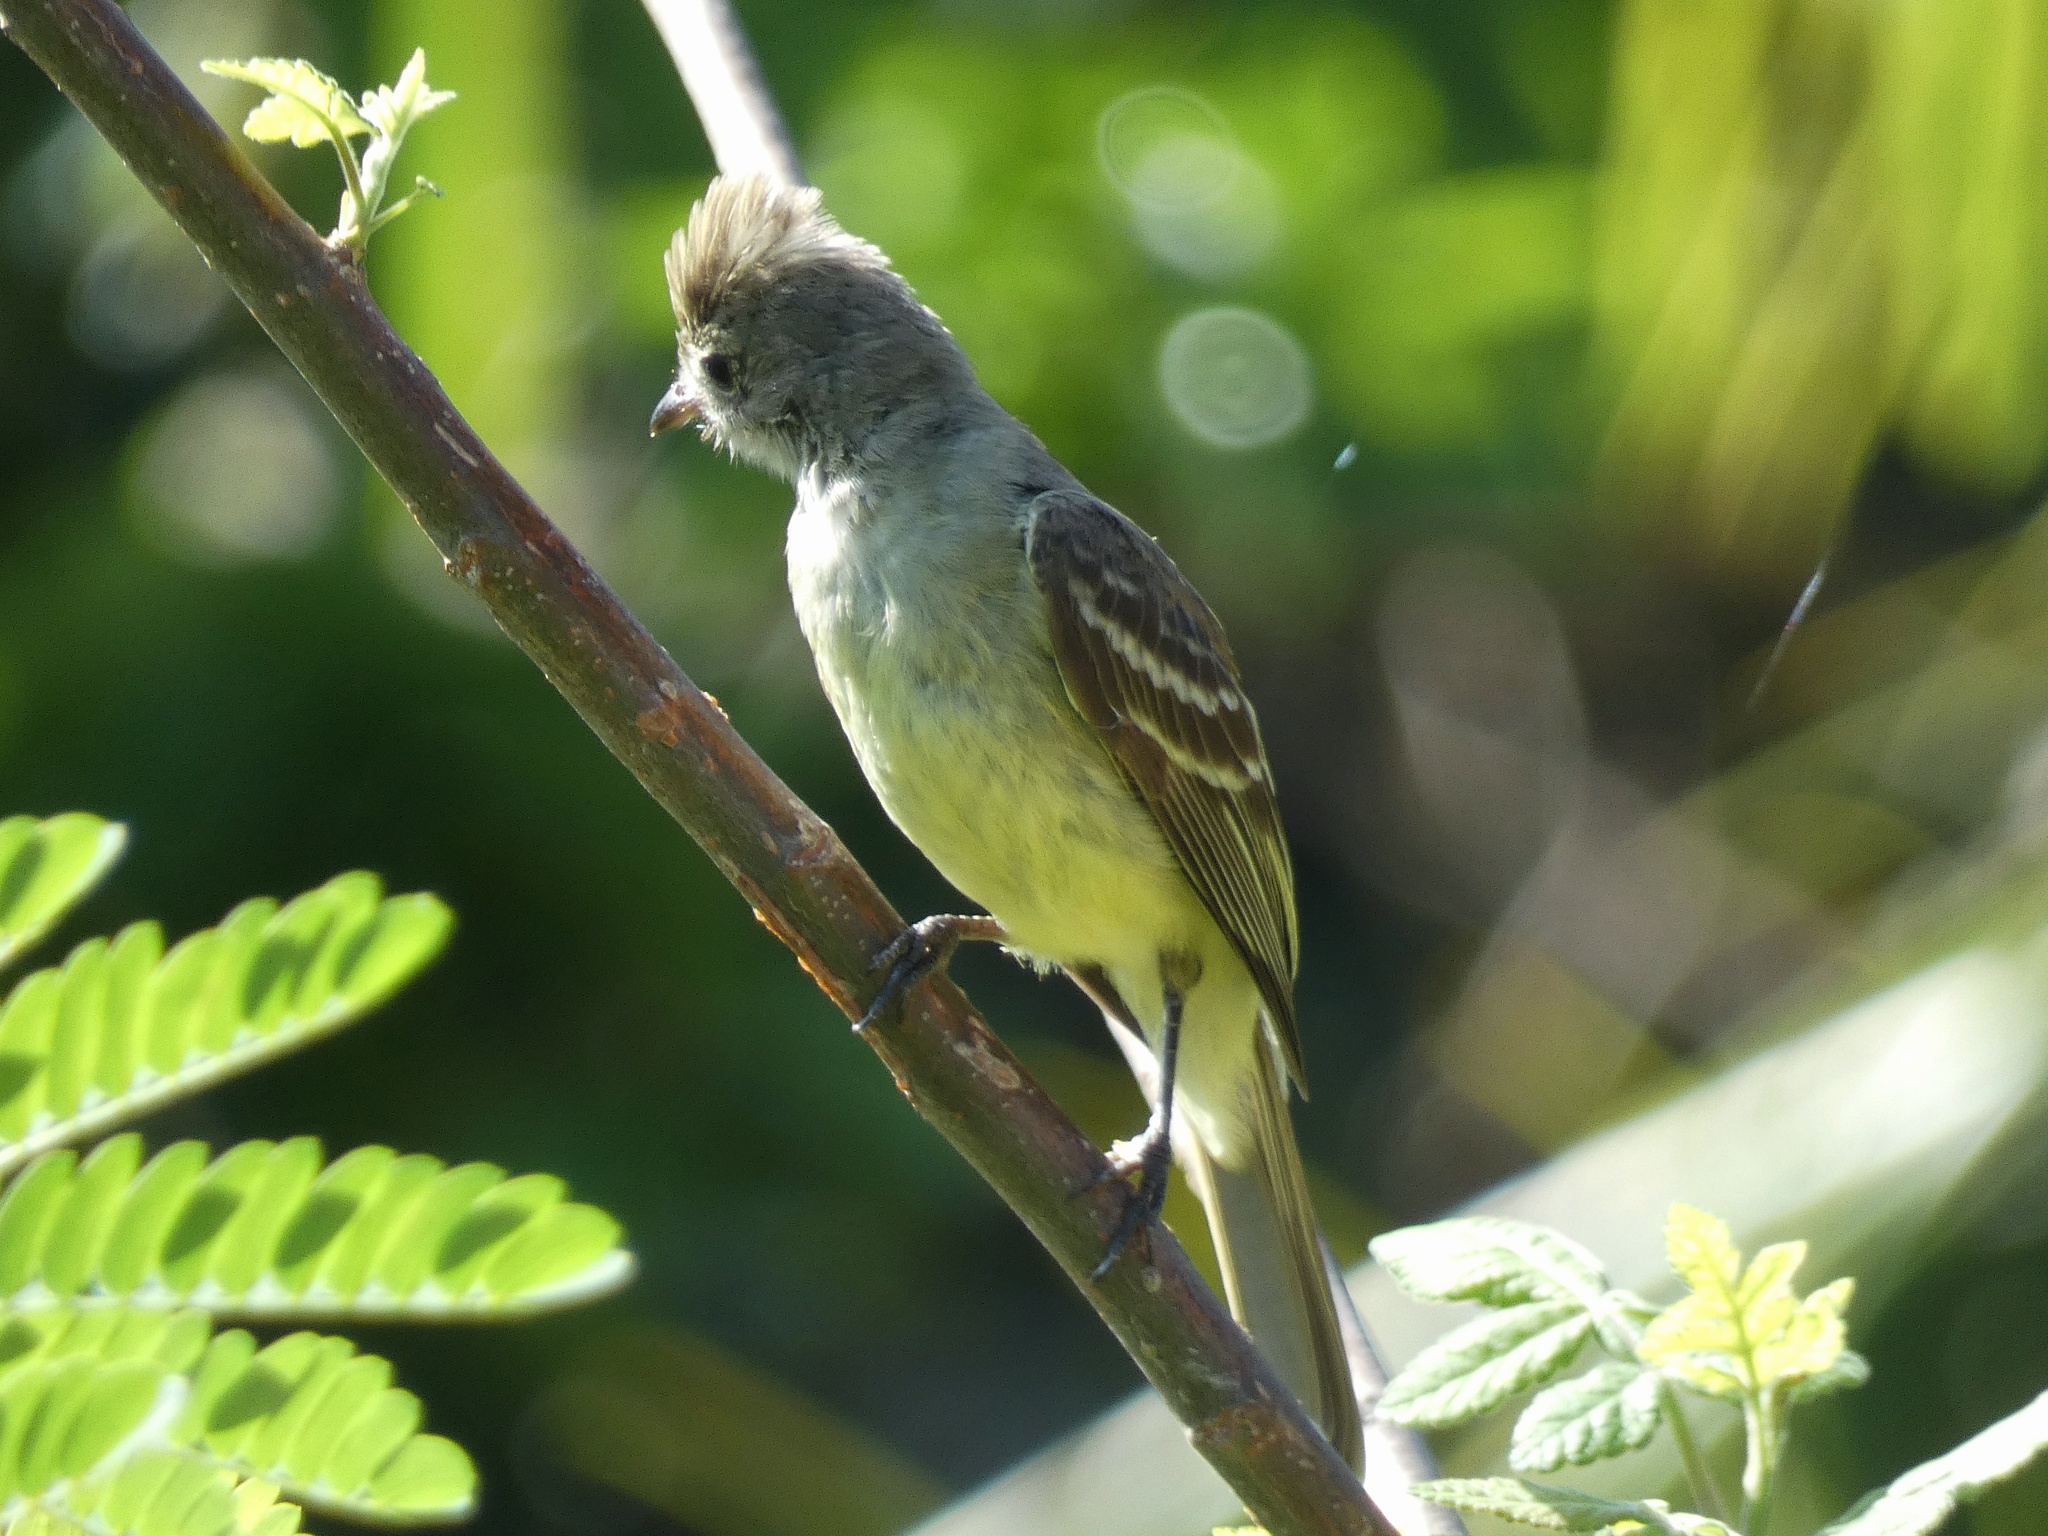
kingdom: Animalia
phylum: Chordata
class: Aves
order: Passeriformes
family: Tyrannidae
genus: Elaenia
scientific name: Elaenia flavogaster
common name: Yellow-bellied elaenia
